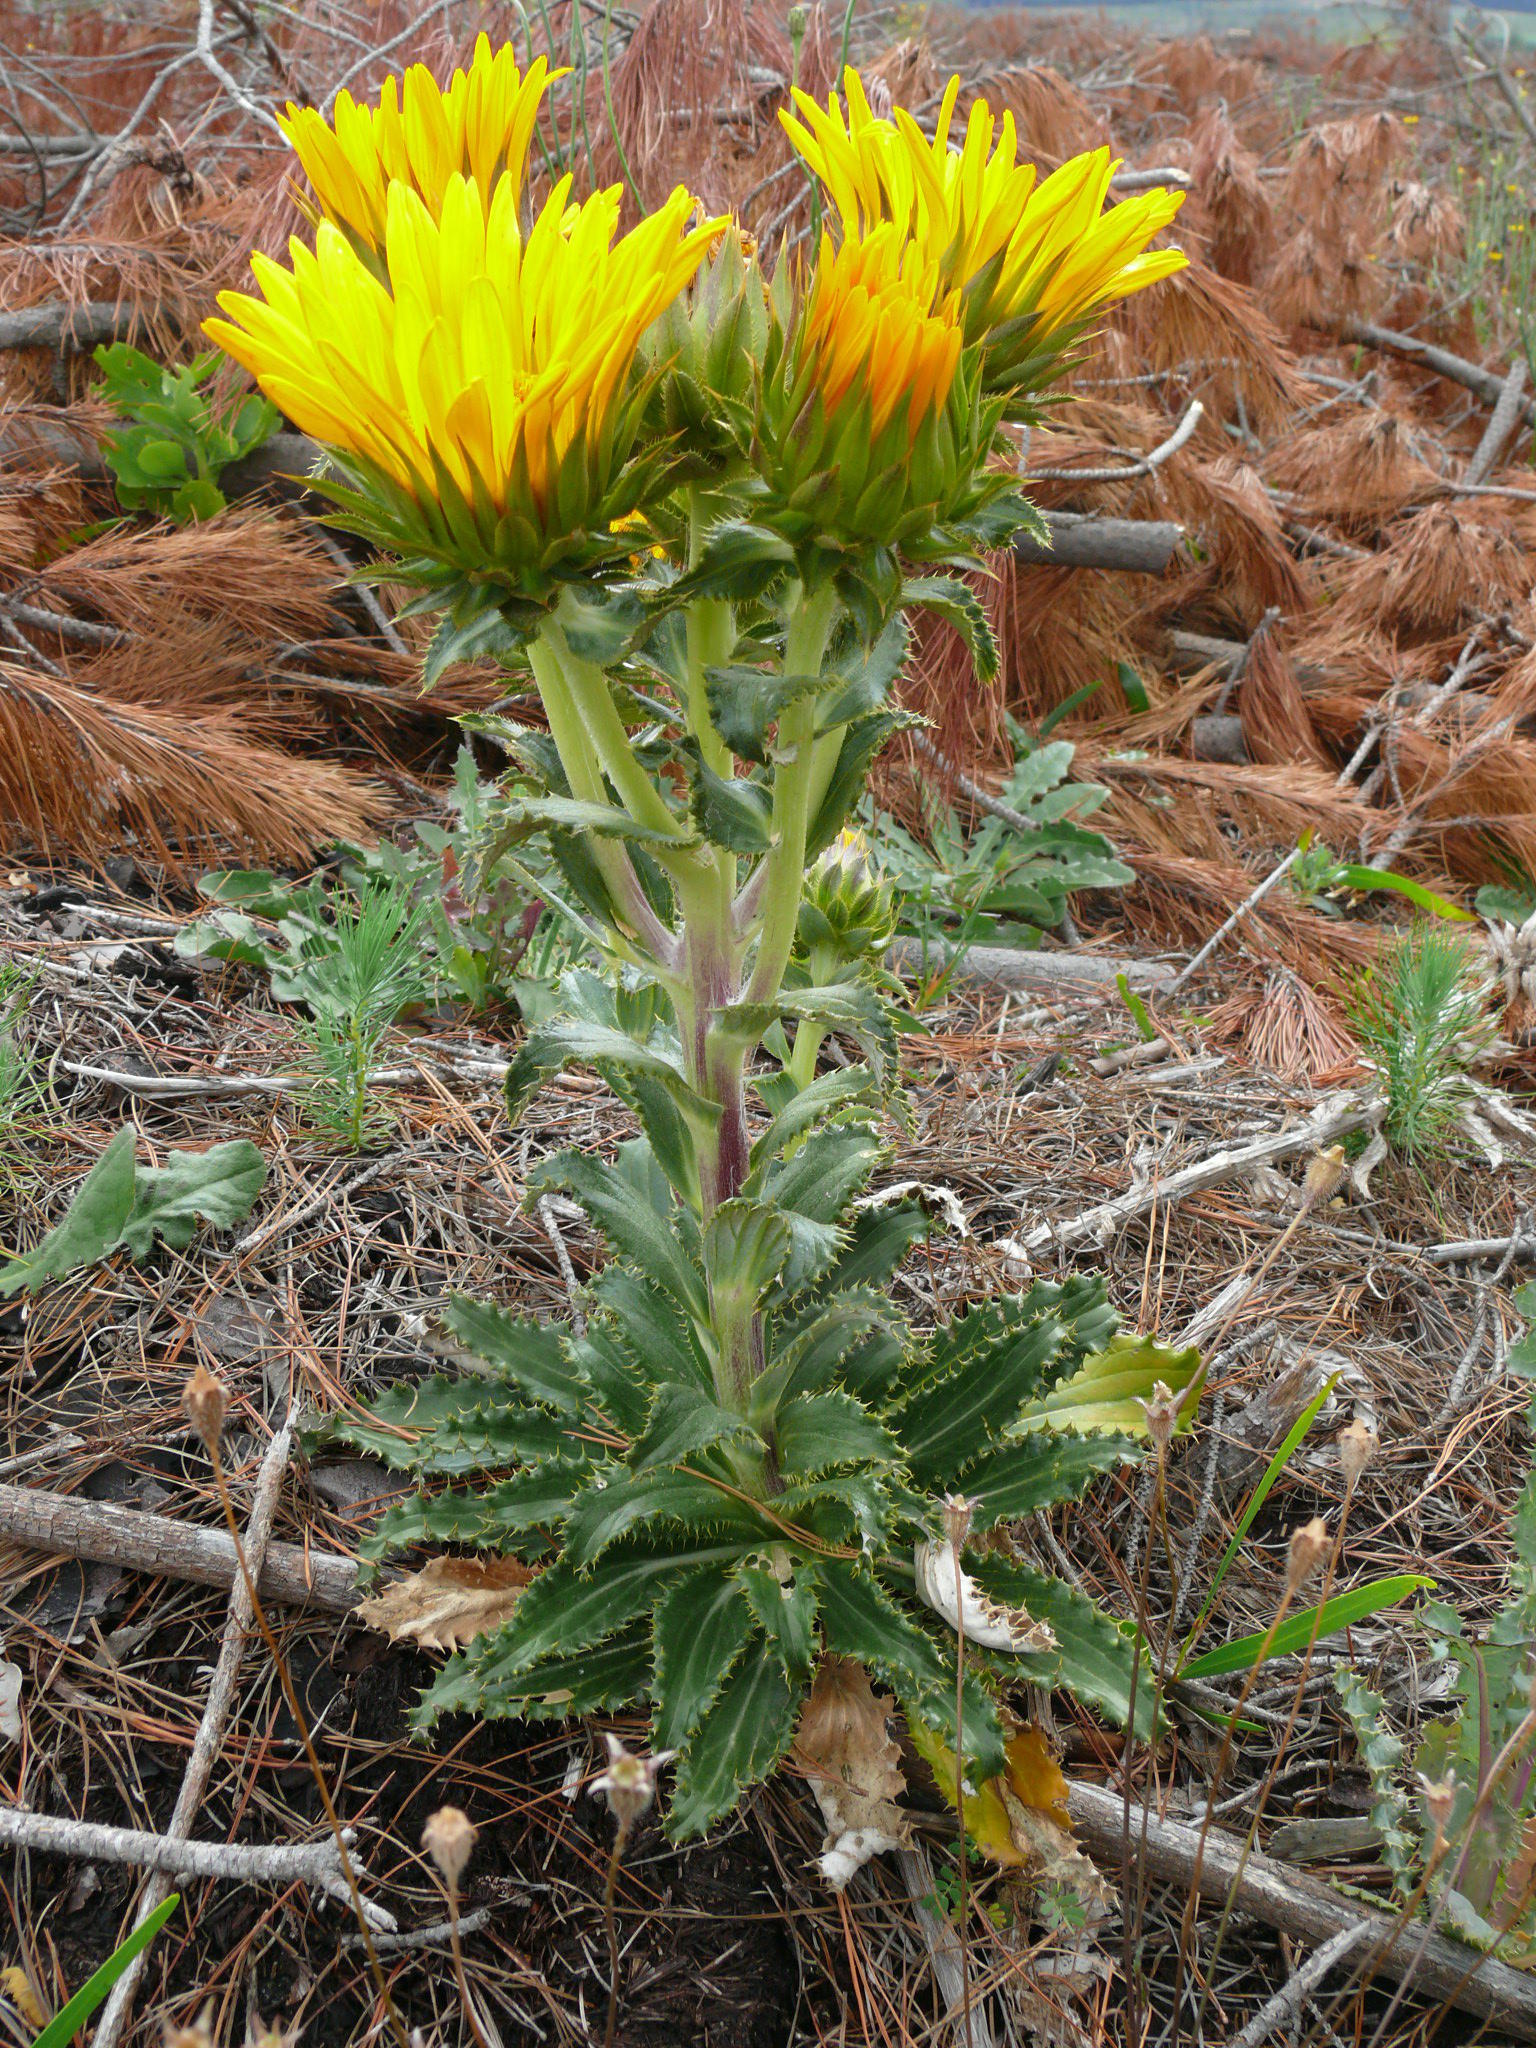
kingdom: Plantae
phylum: Tracheophyta
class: Magnoliopsida
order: Asterales
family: Asteraceae
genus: Berkheya
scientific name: Berkheya armata
